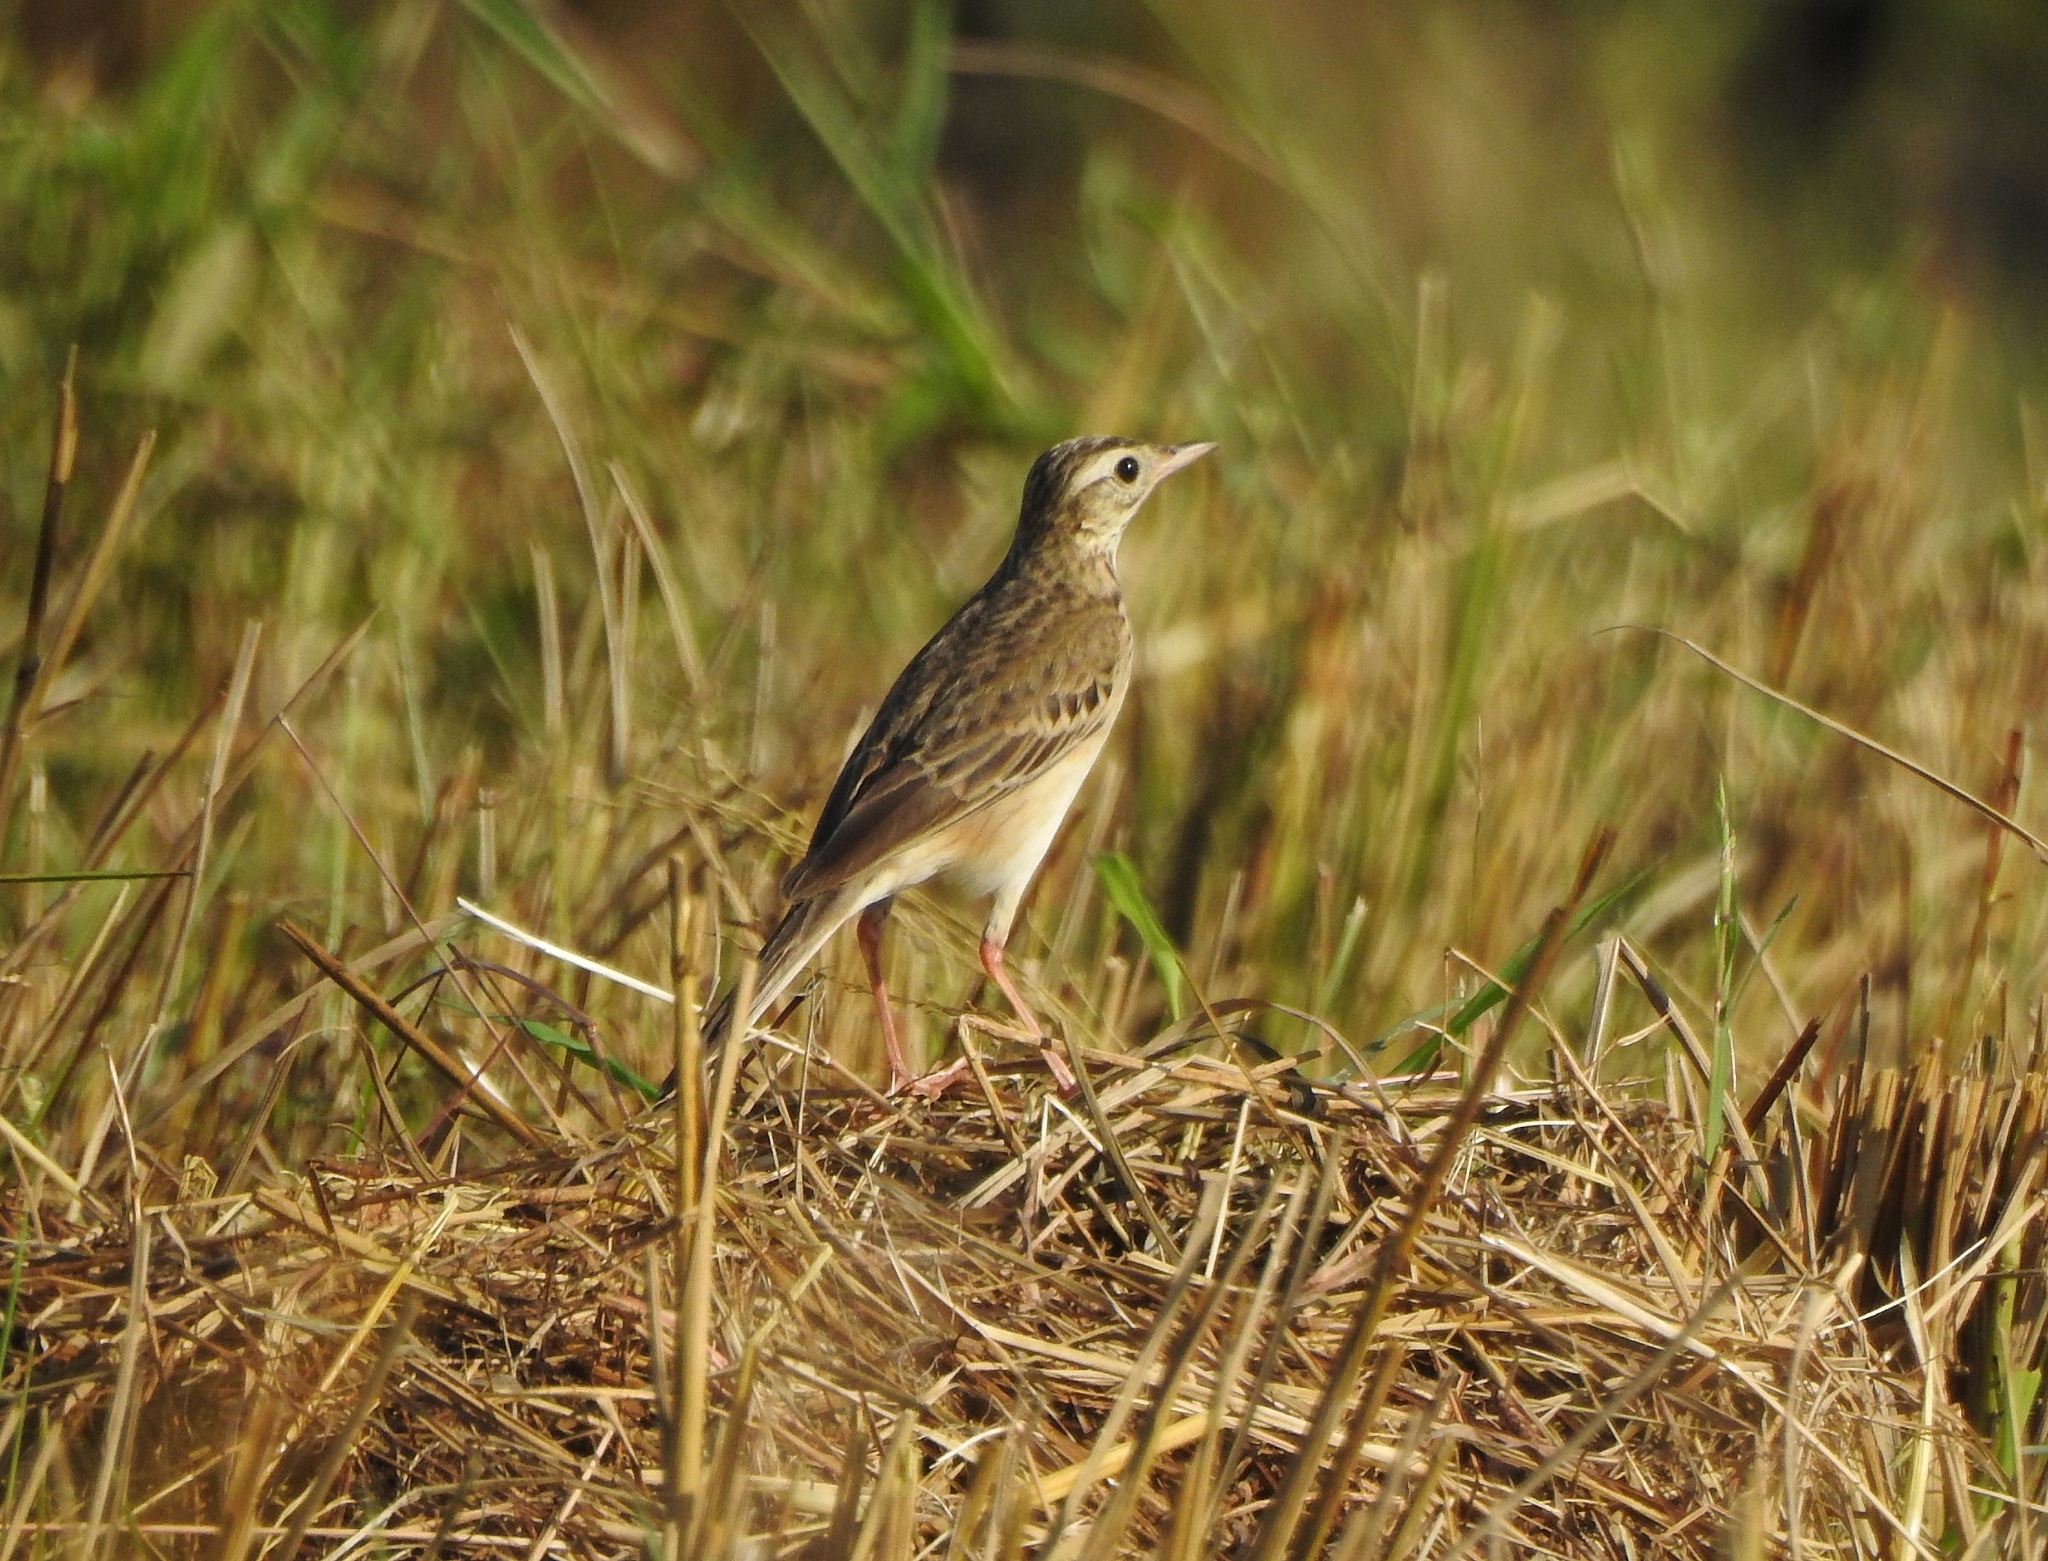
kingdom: Animalia
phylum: Chordata
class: Aves
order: Passeriformes
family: Motacillidae
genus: Anthus
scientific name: Anthus richardi
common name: Richard's pipit
